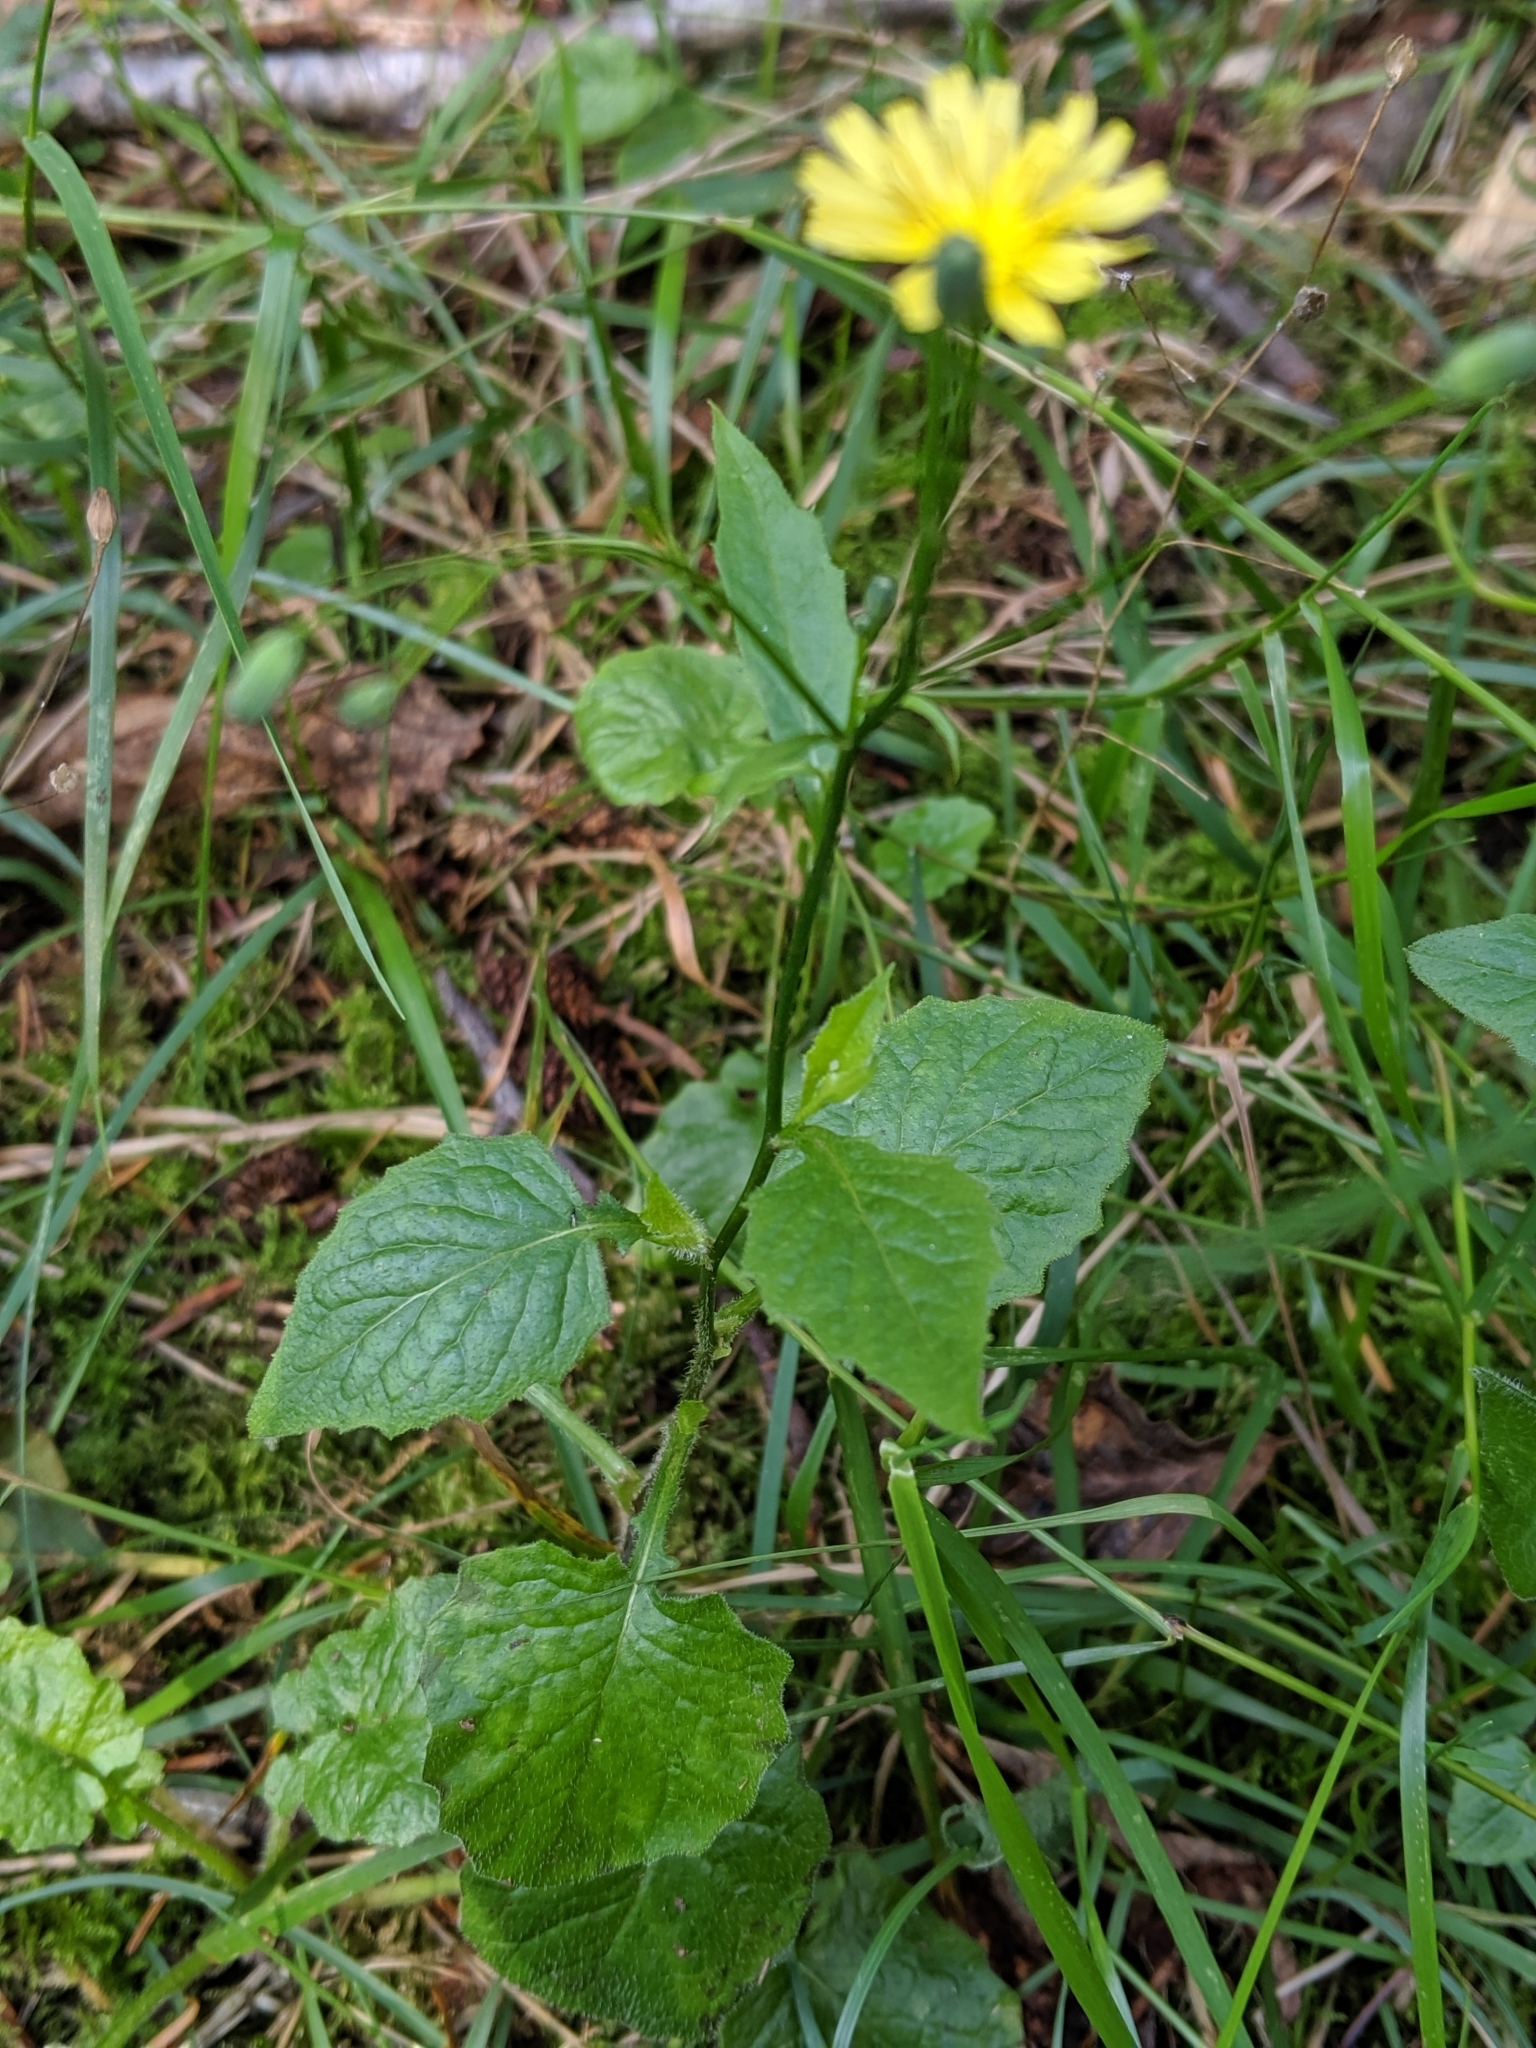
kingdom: Plantae
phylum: Tracheophyta
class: Magnoliopsida
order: Asterales
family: Asteraceae
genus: Lapsana
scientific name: Lapsana communis
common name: Nipplewort
